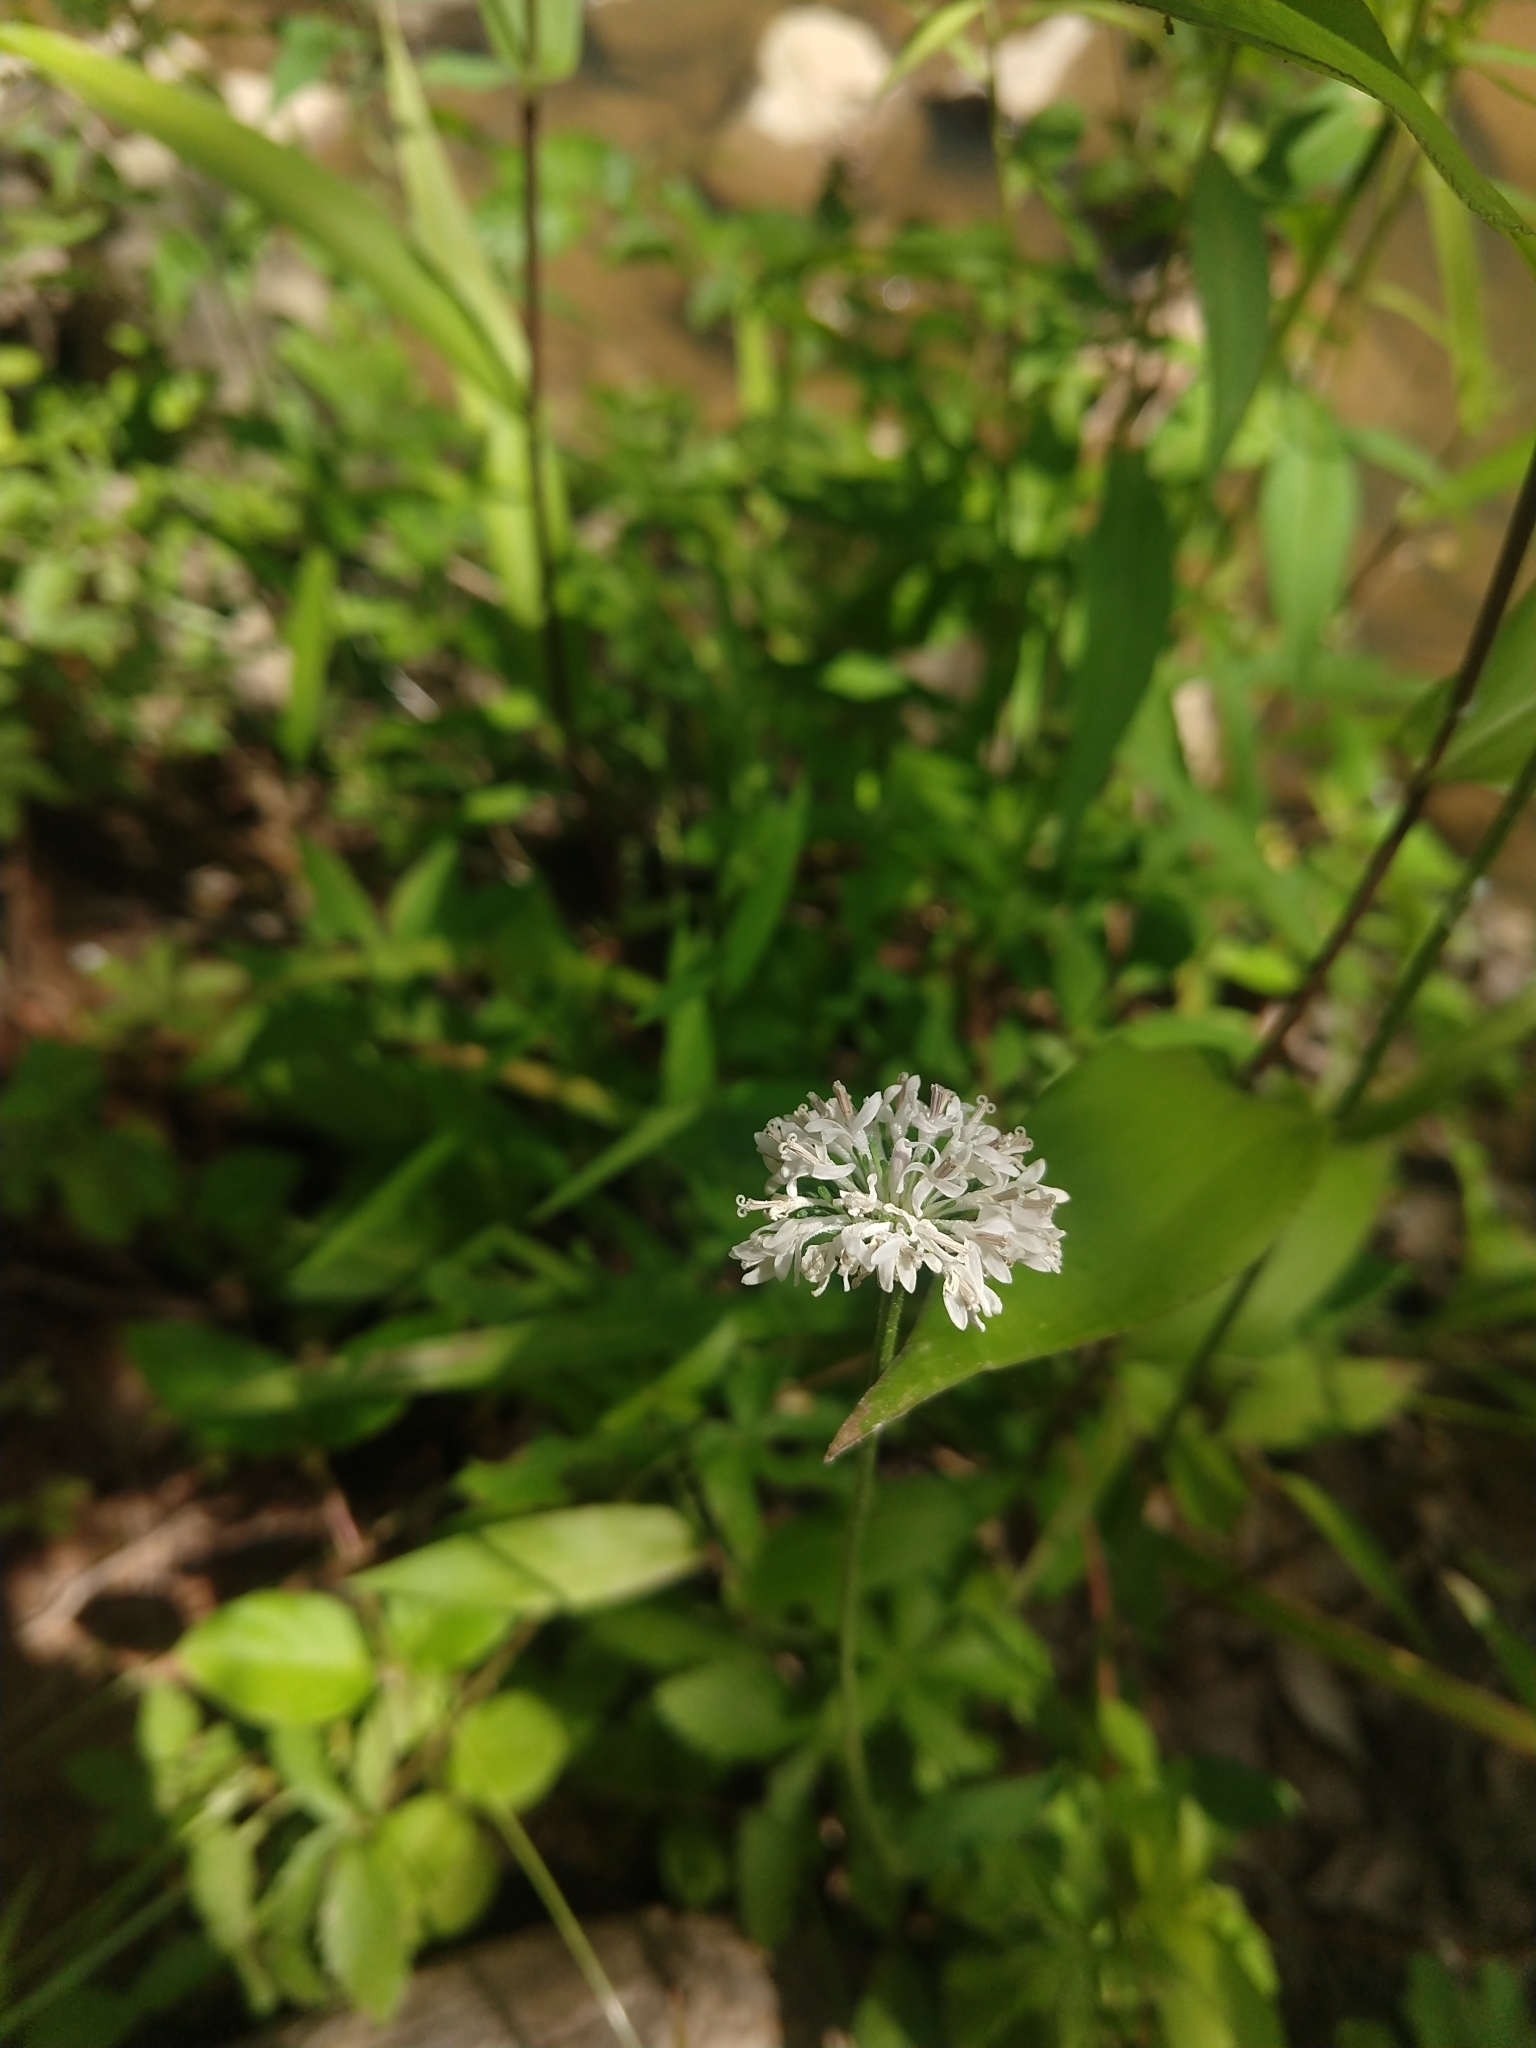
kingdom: Plantae
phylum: Tracheophyta
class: Magnoliopsida
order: Asterales
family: Asteraceae
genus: Marshallia
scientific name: Marshallia obovata
